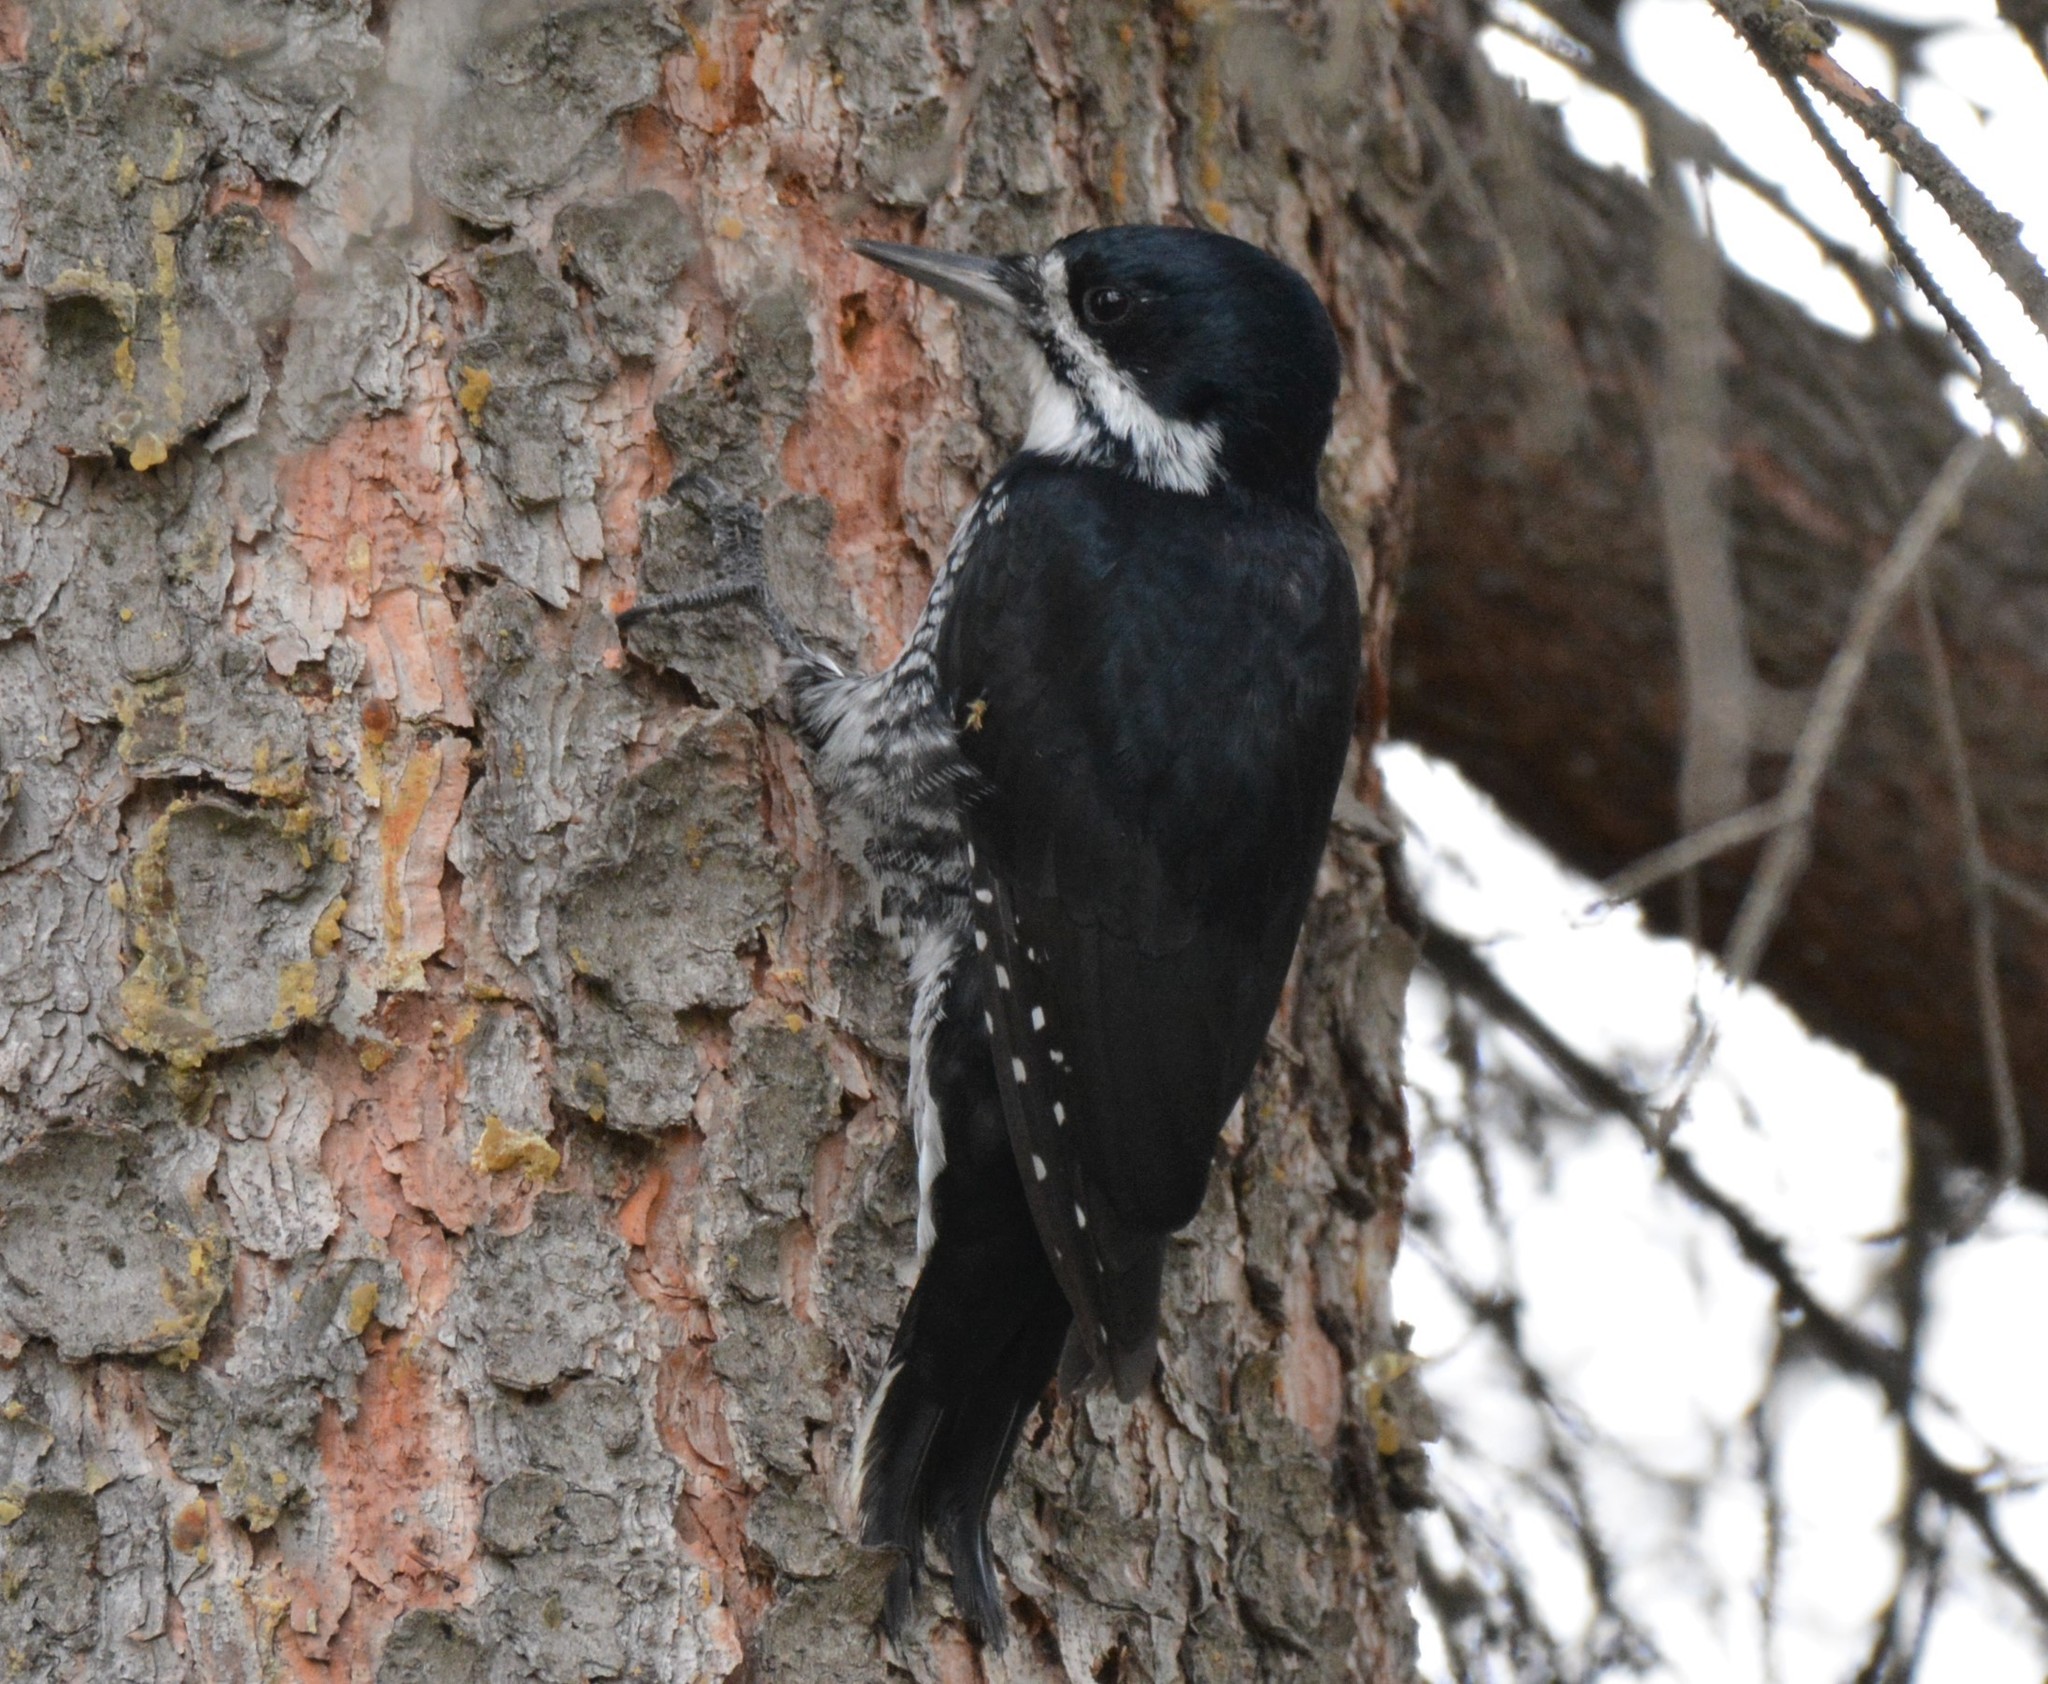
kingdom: Animalia
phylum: Chordata
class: Aves
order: Piciformes
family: Picidae
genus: Picoides
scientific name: Picoides arcticus
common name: Black-backed woodpecker
